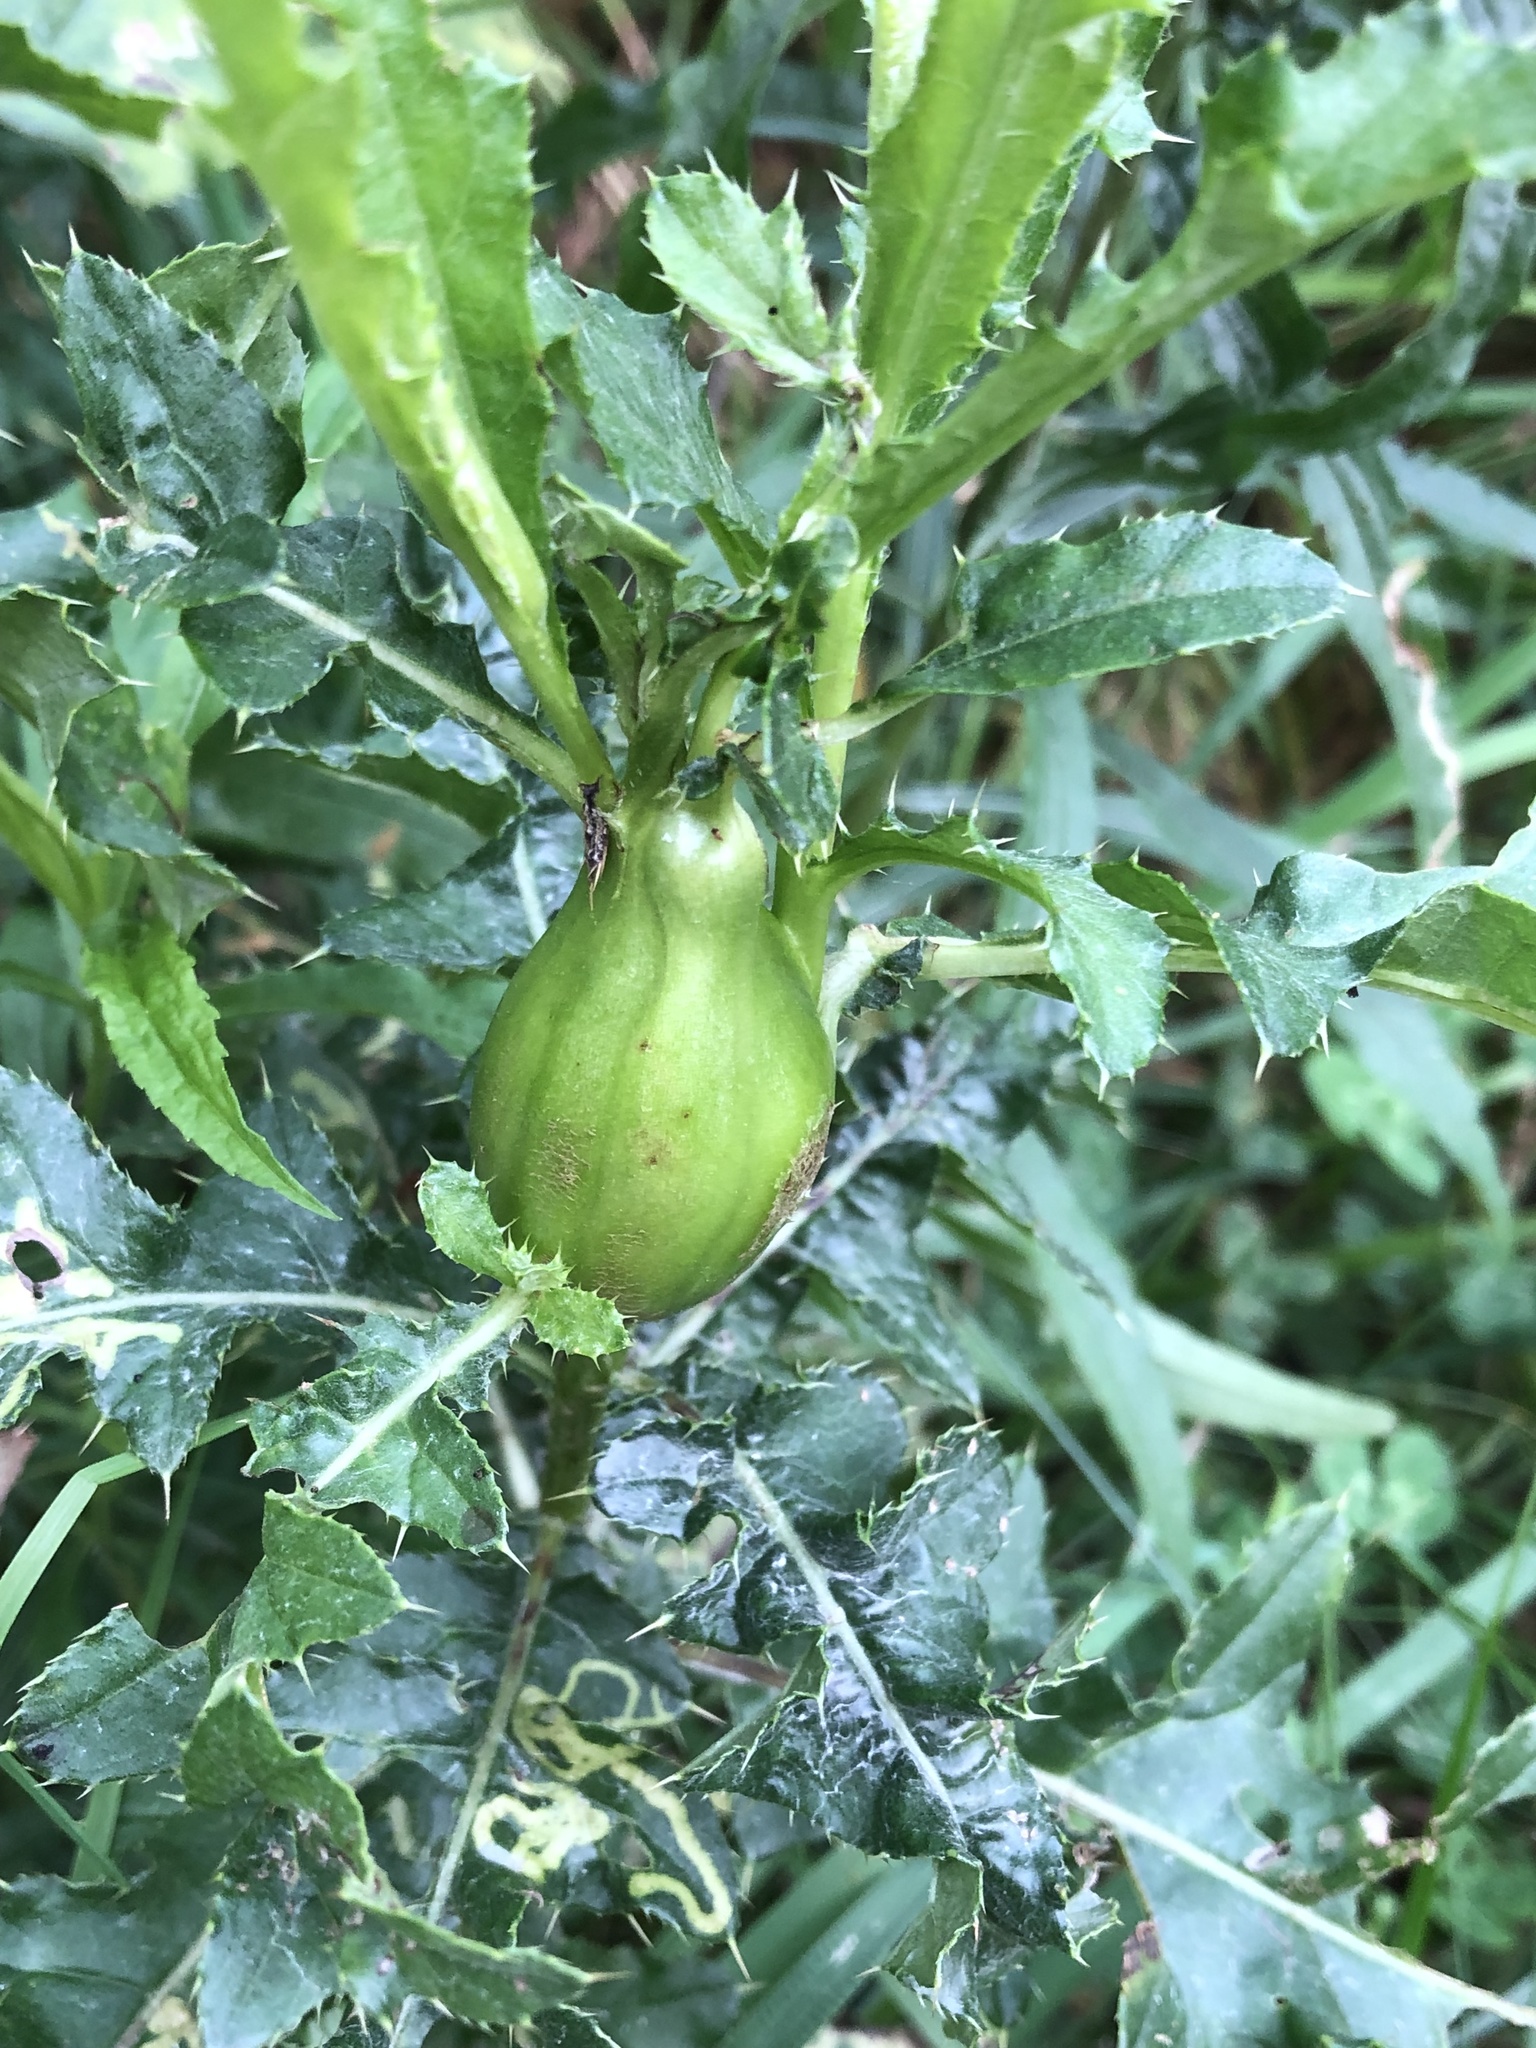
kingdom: Animalia
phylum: Arthropoda
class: Insecta
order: Diptera
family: Tephritidae
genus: Urophora
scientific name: Urophora cardui
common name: Fruit fly
